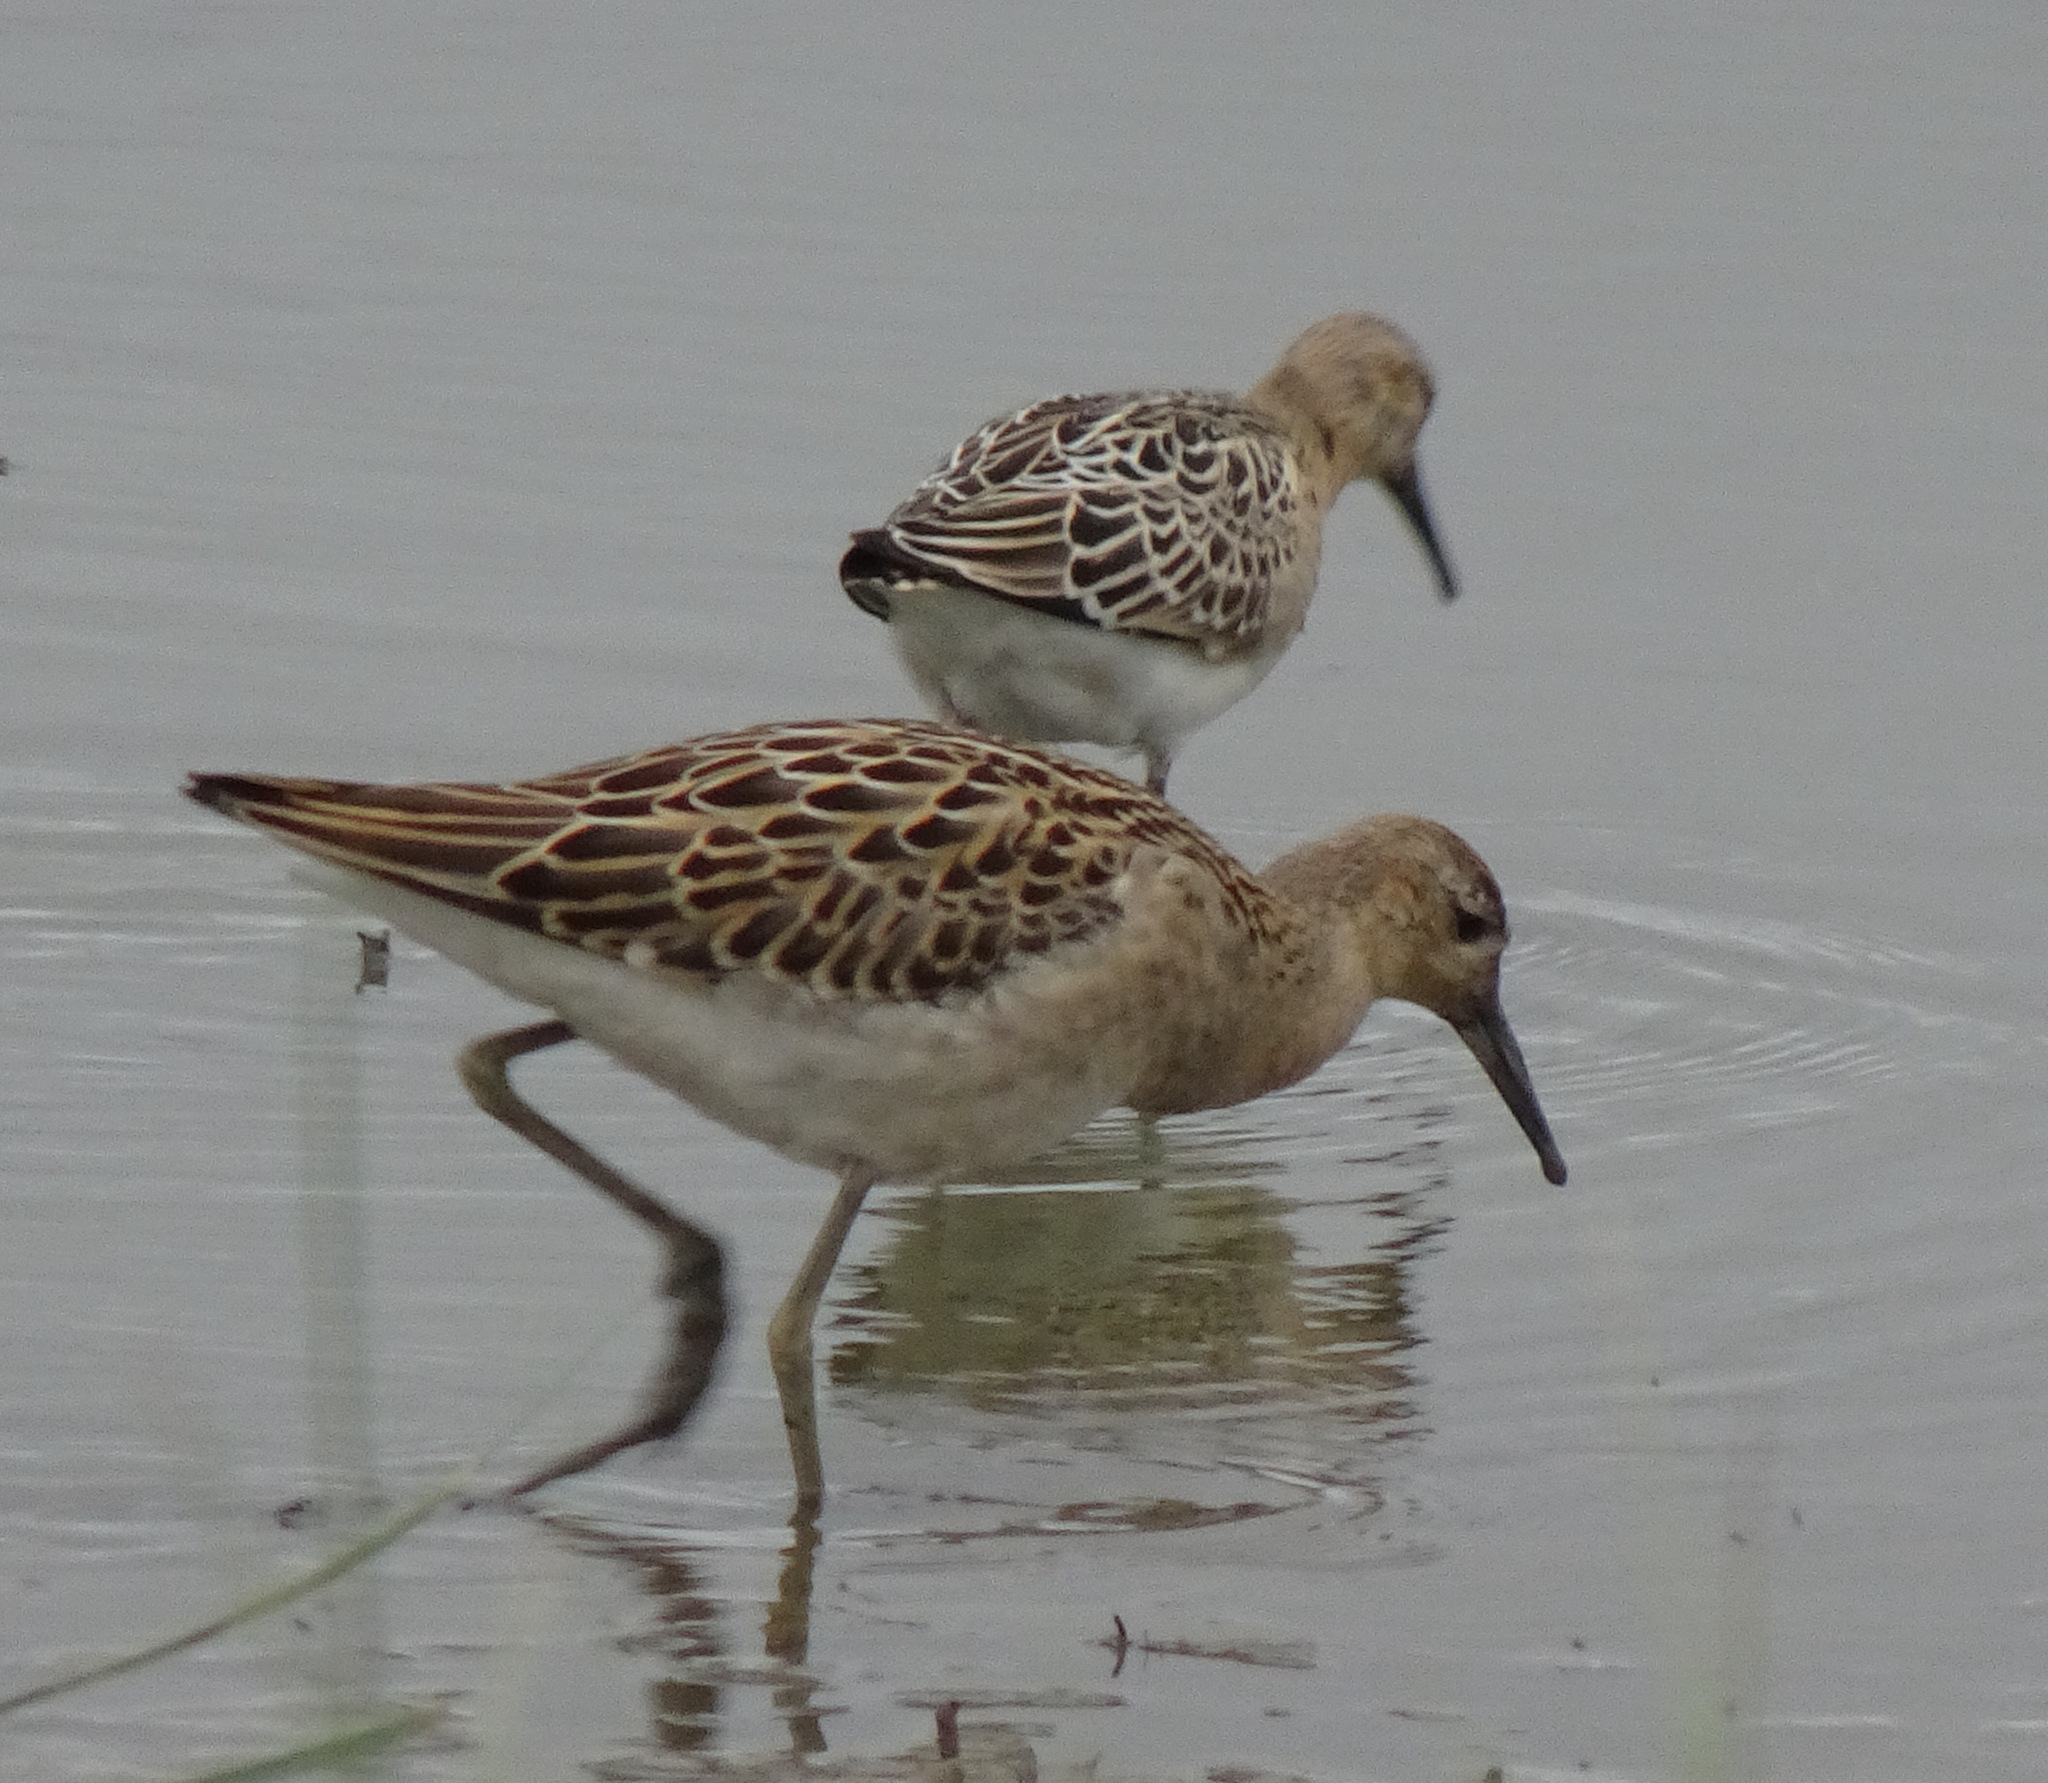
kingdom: Animalia
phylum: Chordata
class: Aves
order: Charadriiformes
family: Scolopacidae
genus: Calidris
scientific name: Calidris pugnax
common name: Ruff
